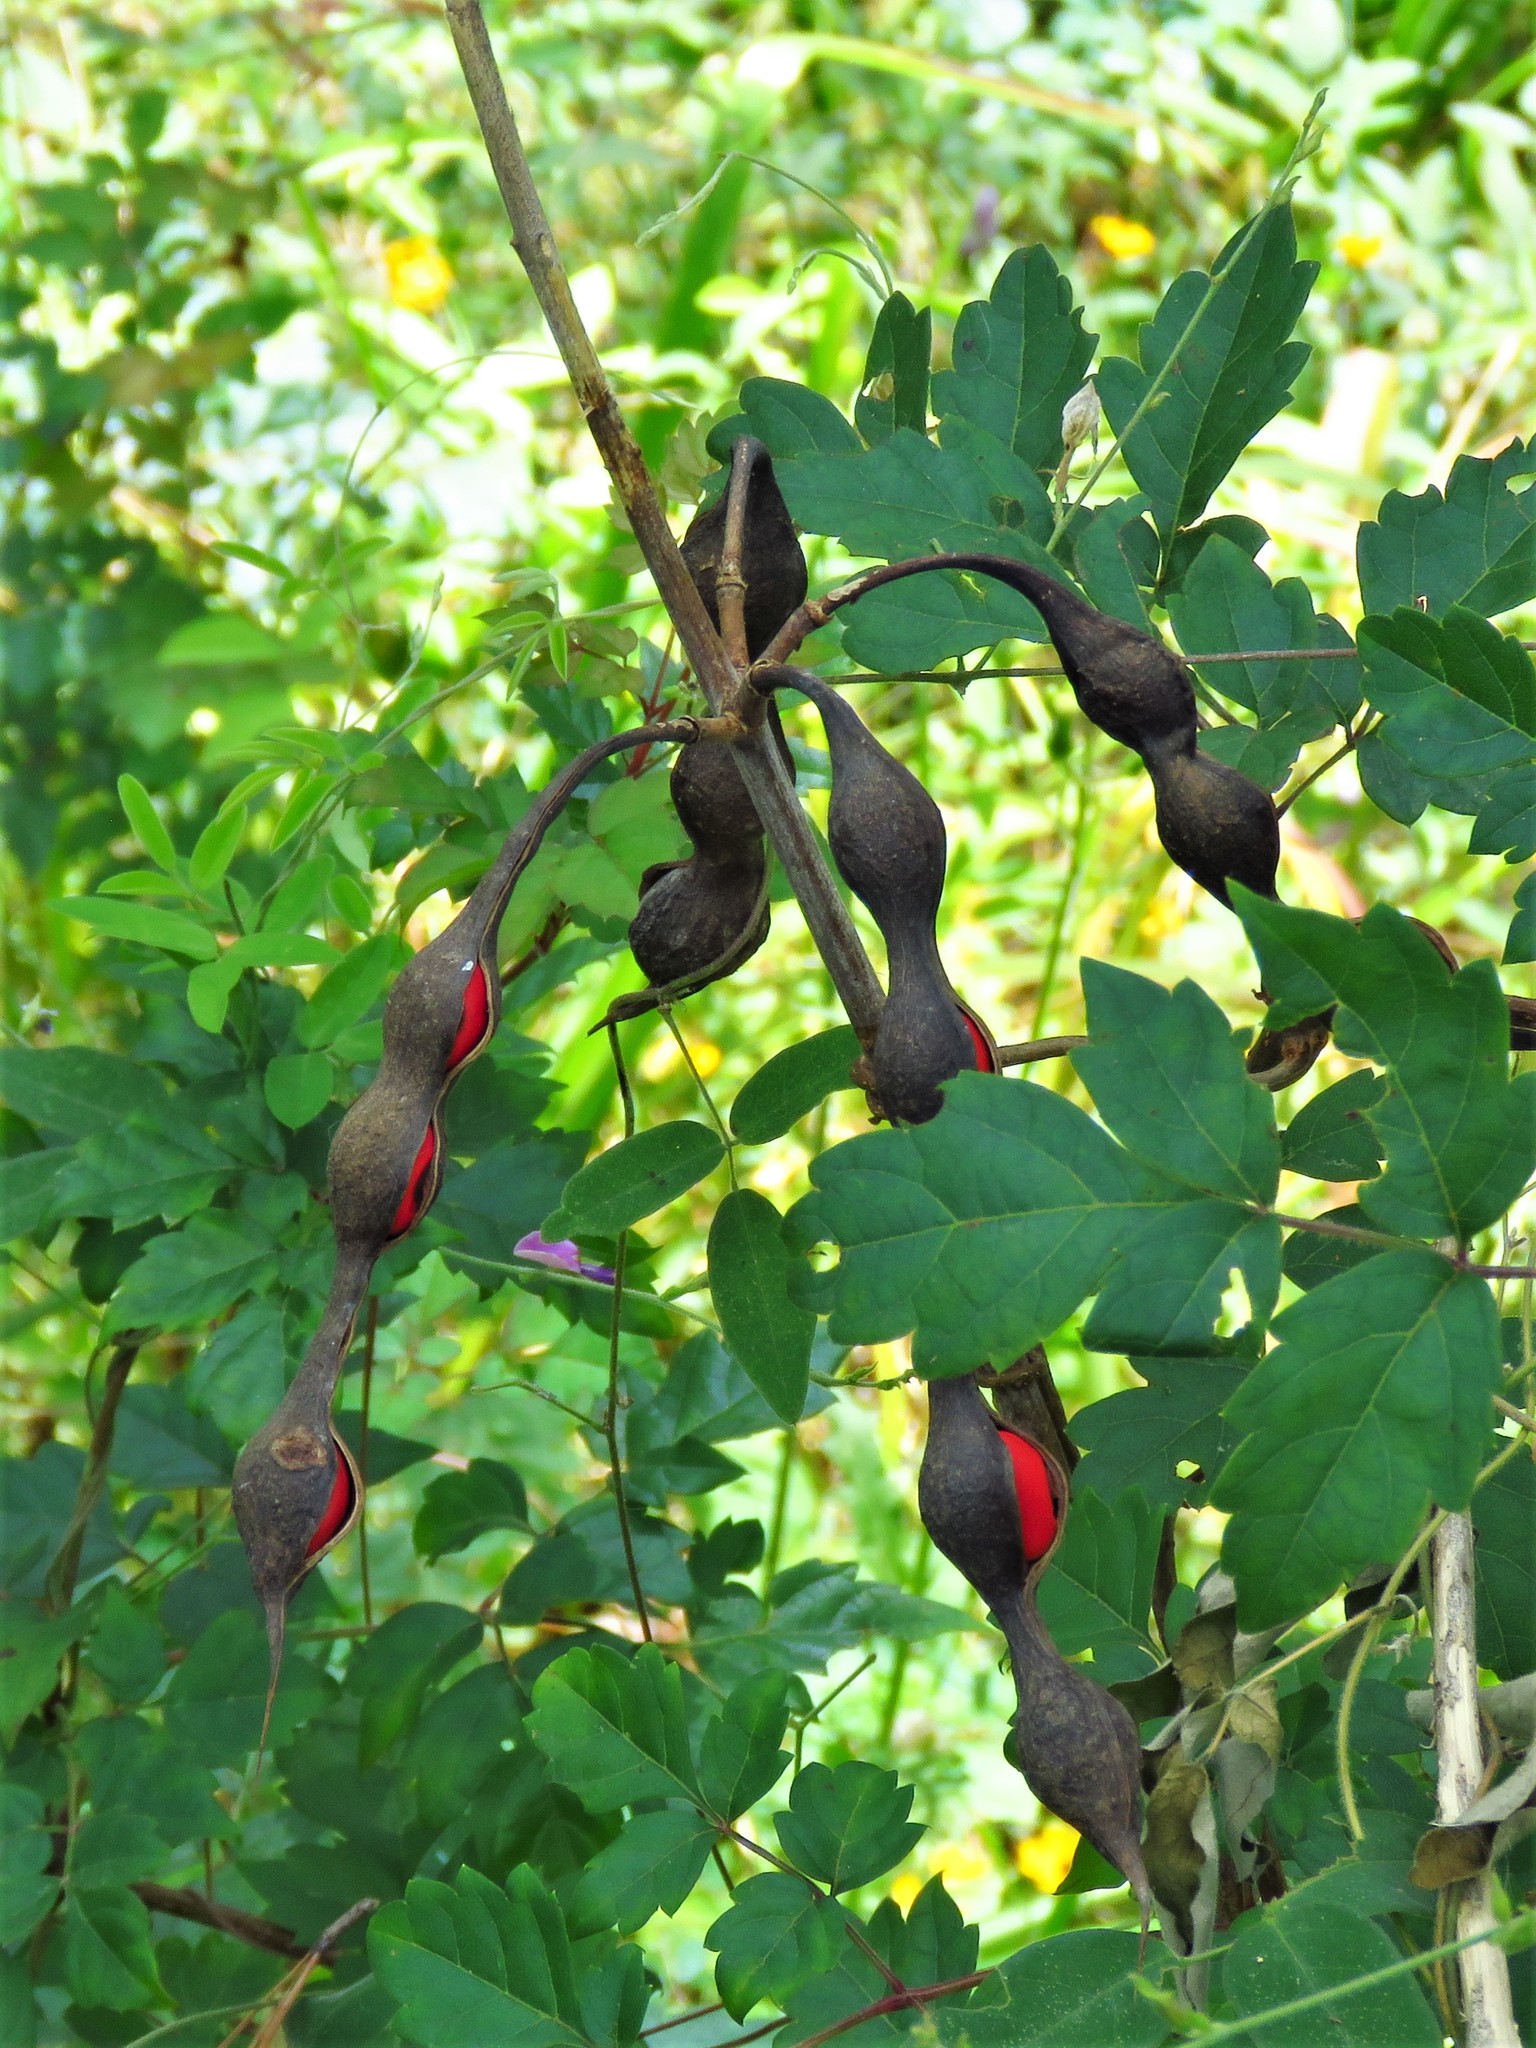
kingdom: Plantae
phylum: Tracheophyta
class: Magnoliopsida
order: Fabales
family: Fabaceae
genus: Erythrina
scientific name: Erythrina herbacea
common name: Coral-bean
